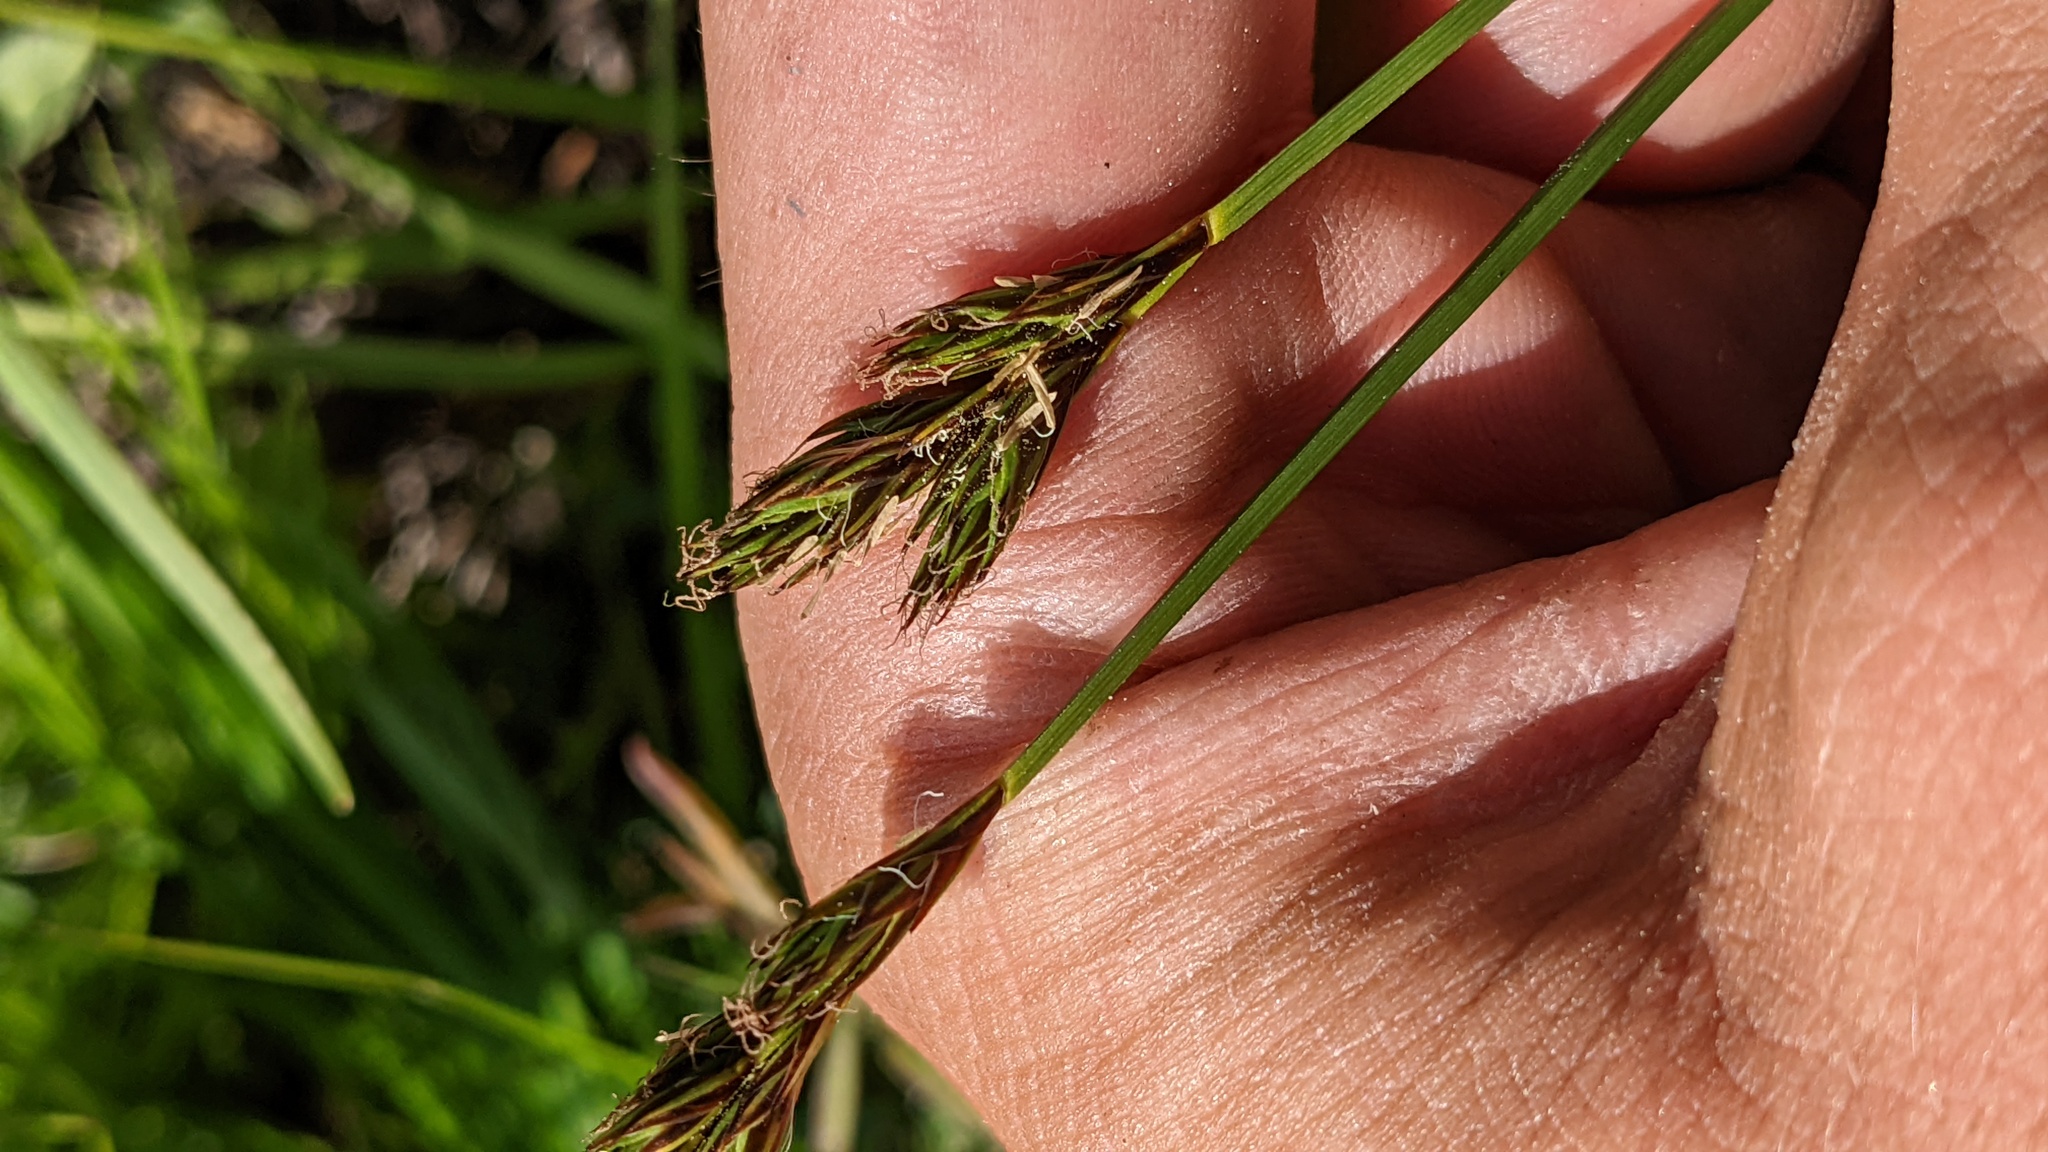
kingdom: Plantae
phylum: Tracheophyta
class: Liliopsida
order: Poales
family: Cyperaceae
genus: Carex
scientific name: Carex petasata
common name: Liddon's sedge
